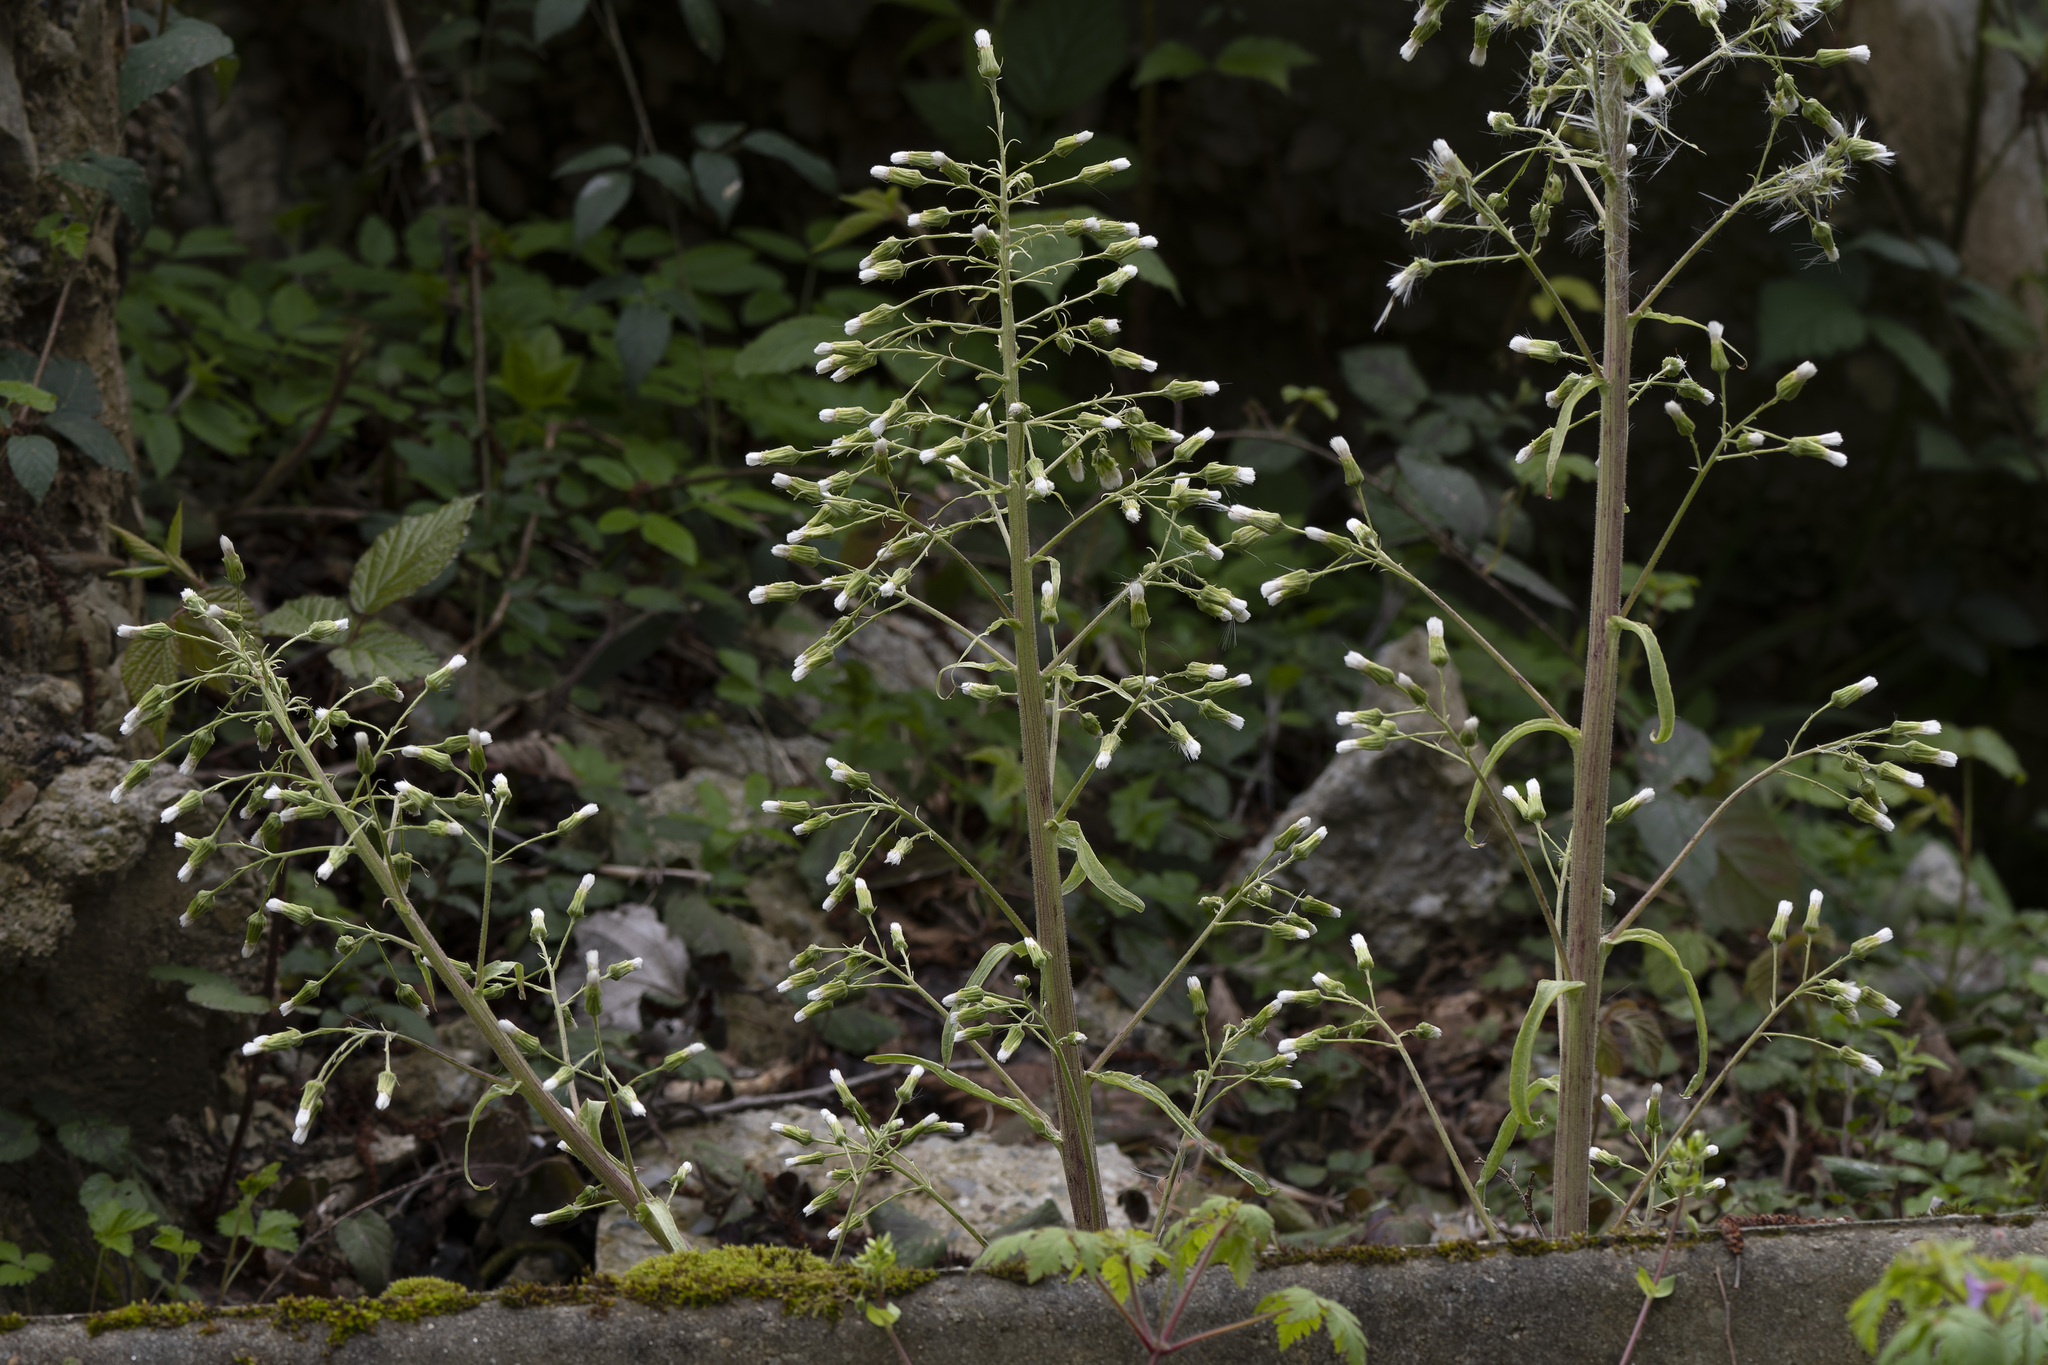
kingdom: Plantae
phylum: Tracheophyta
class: Magnoliopsida
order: Asterales
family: Asteraceae
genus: Petasites
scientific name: Petasites albus
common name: White butterbur
